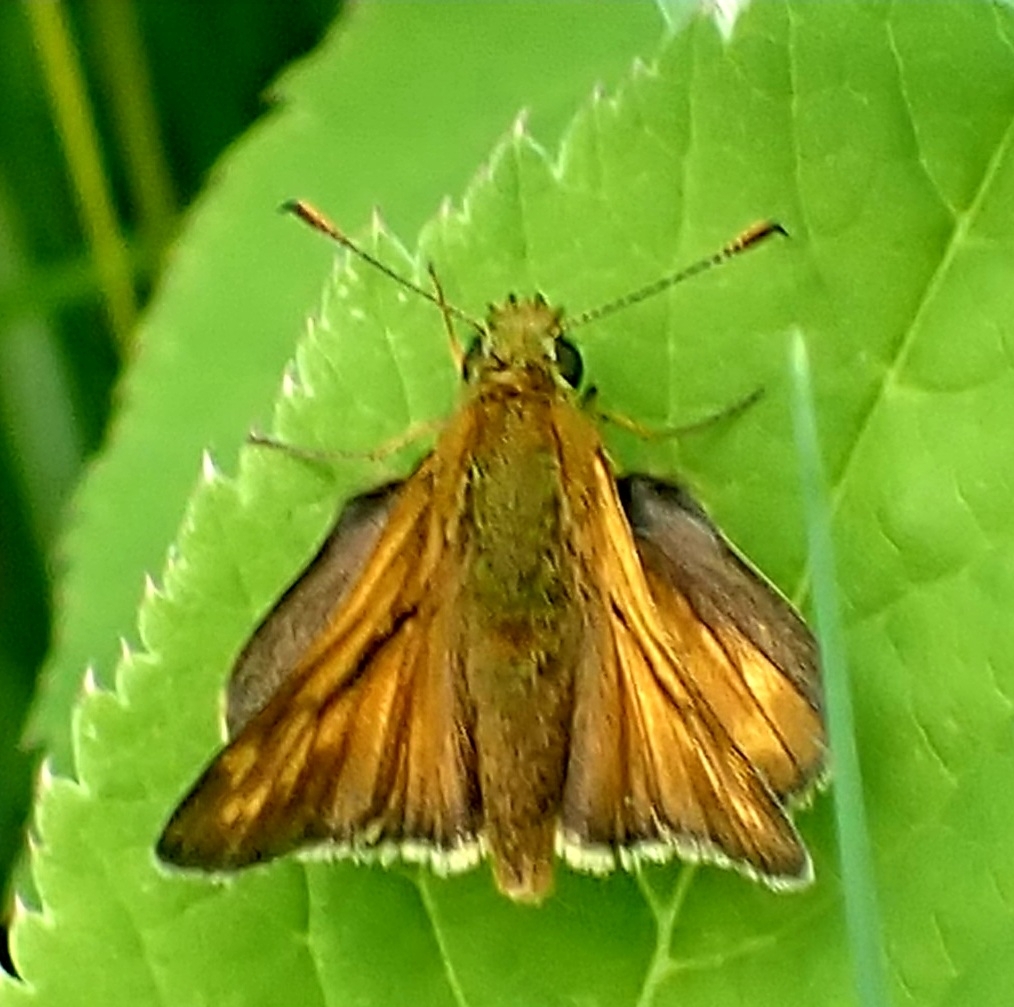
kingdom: Animalia
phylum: Arthropoda
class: Insecta
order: Lepidoptera
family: Hesperiidae
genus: Ochlodes
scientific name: Ochlodes venata
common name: Large skipper
